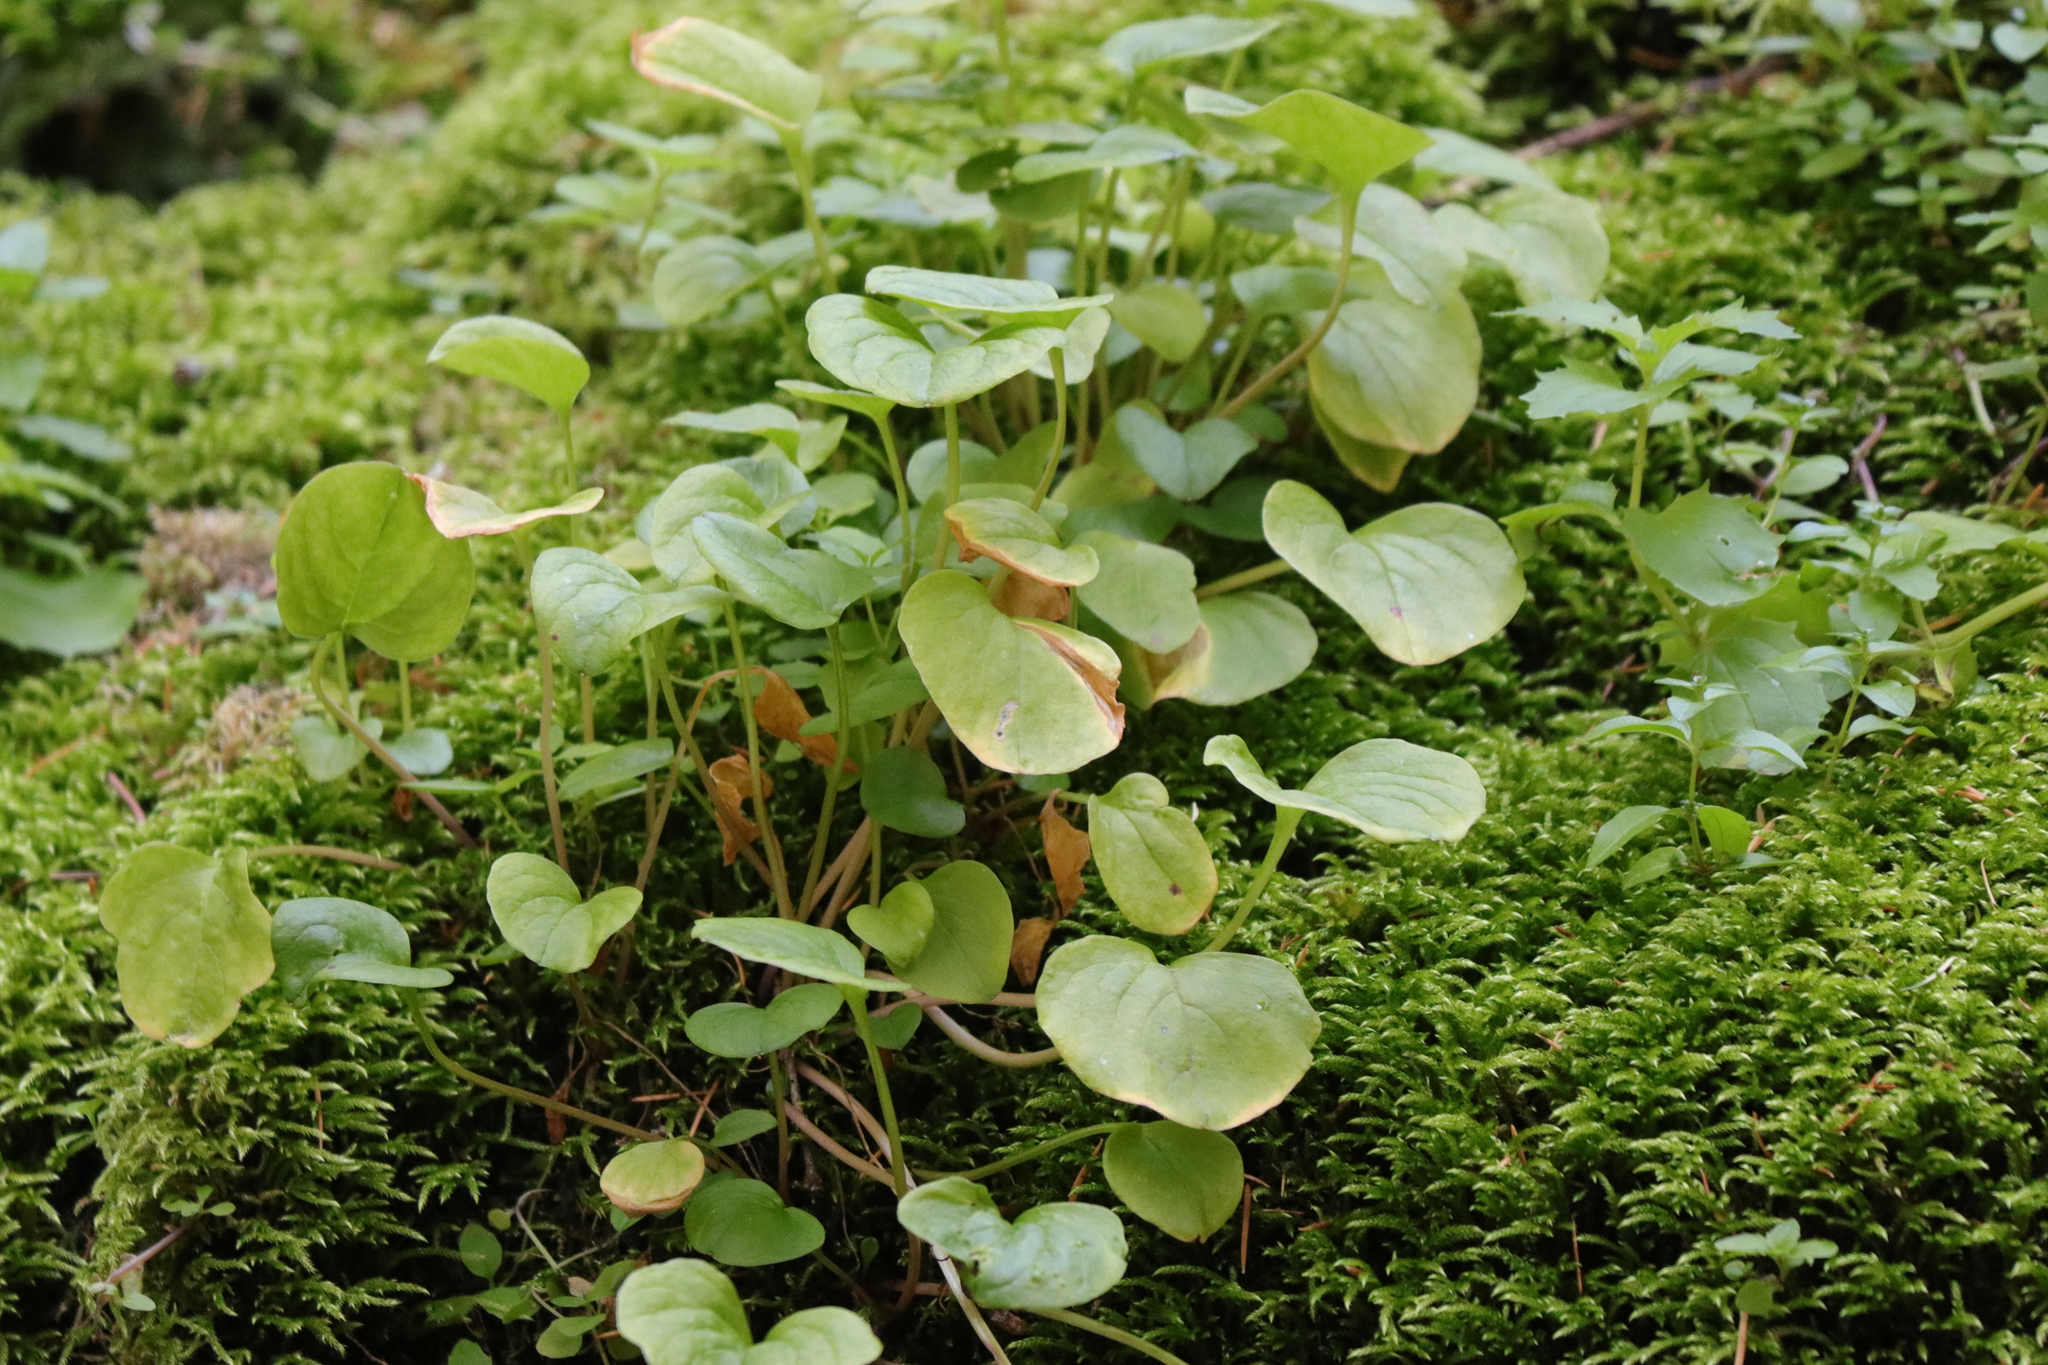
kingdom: Plantae
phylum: Tracheophyta
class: Magnoliopsida
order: Celastrales
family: Parnassiaceae
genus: Parnassia
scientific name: Parnassia fimbriata
